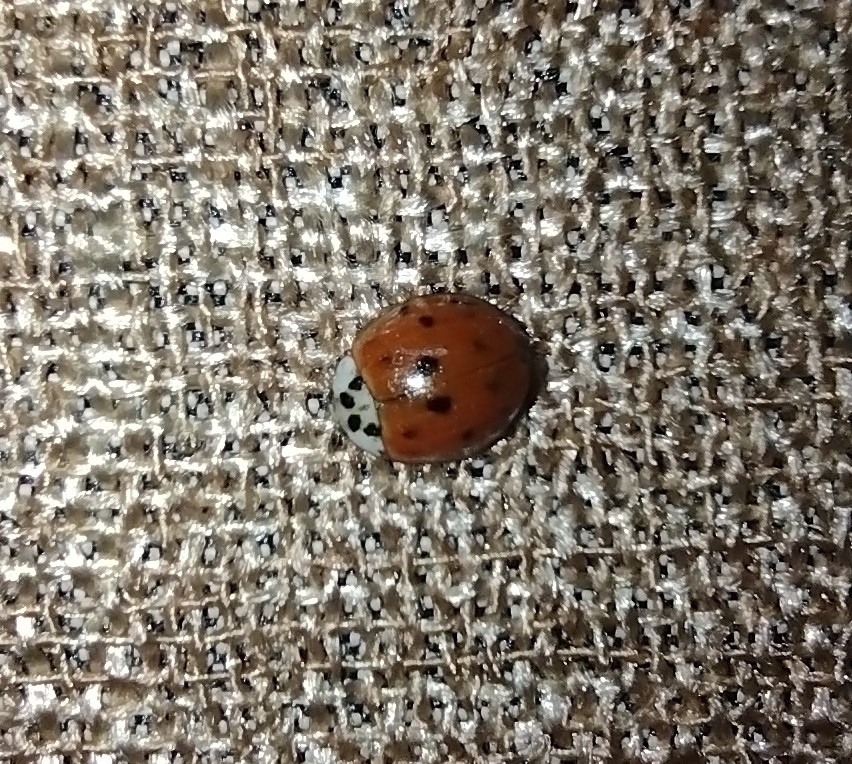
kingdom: Animalia
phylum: Arthropoda
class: Insecta
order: Coleoptera
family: Coccinellidae
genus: Harmonia
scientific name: Harmonia axyridis
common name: Harlequin ladybird
